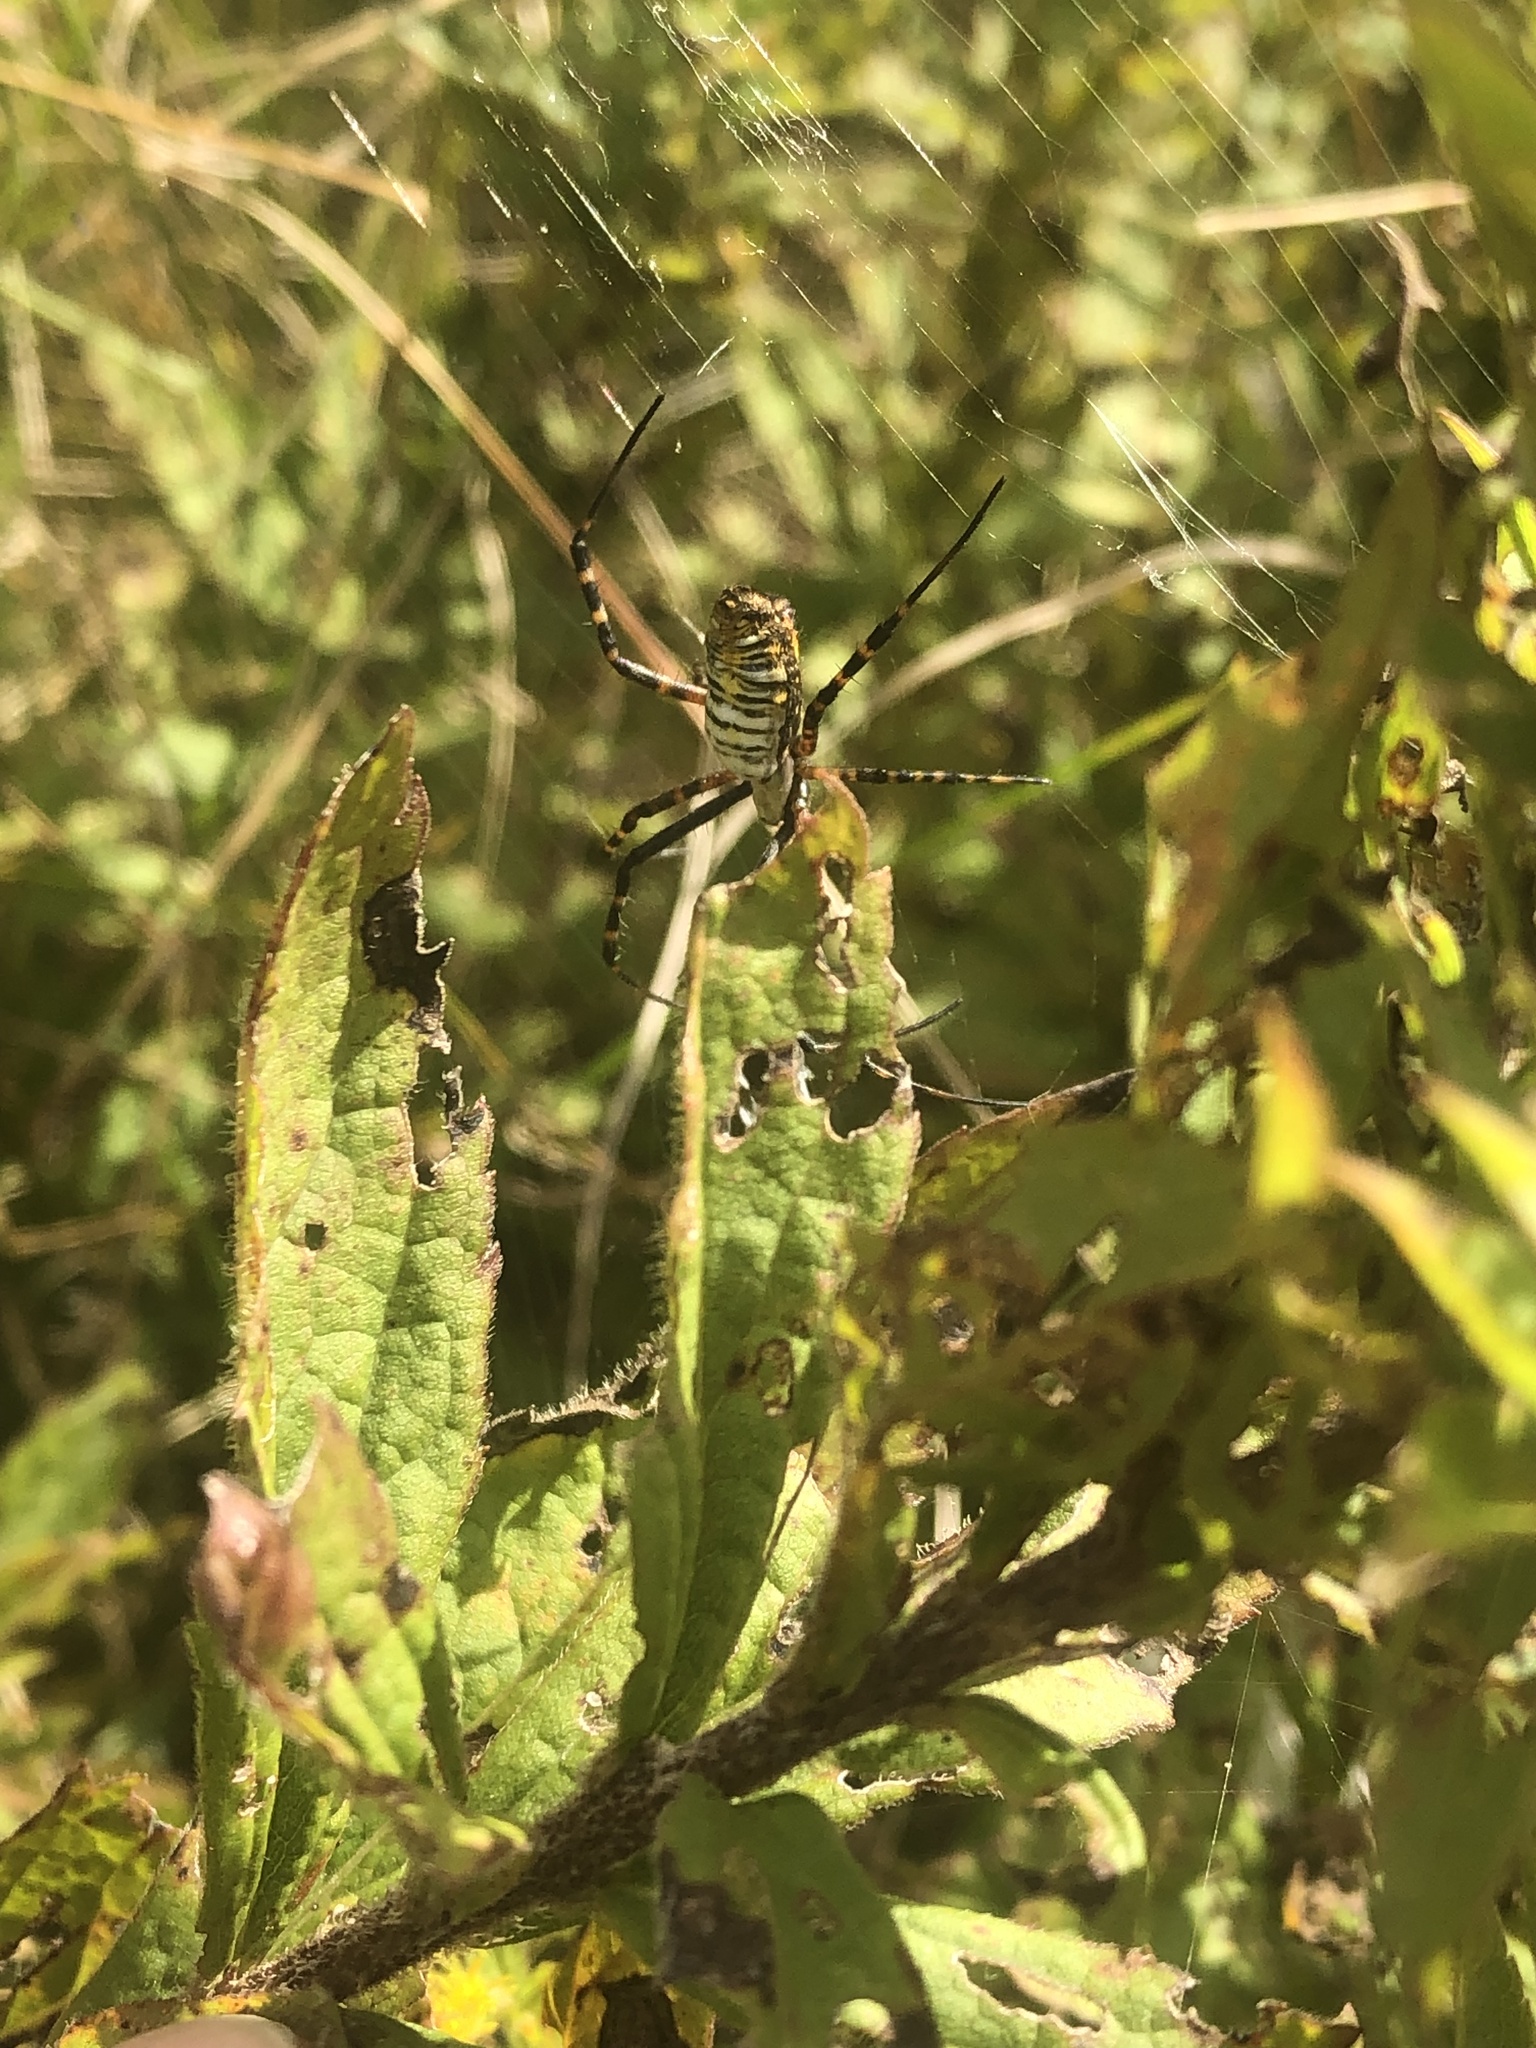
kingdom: Animalia
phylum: Arthropoda
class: Arachnida
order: Araneae
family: Araneidae
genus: Argiope
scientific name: Argiope trifasciata
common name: Banded garden spider
